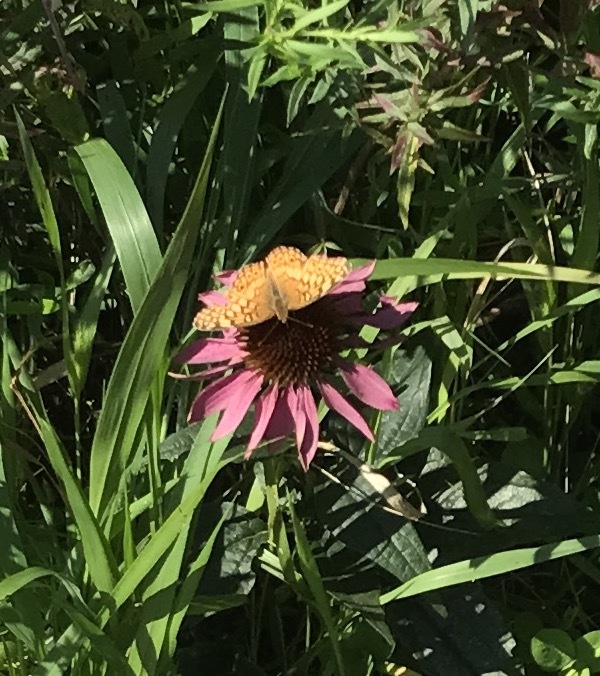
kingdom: Animalia
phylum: Arthropoda
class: Insecta
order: Lepidoptera
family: Nymphalidae
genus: Euptoieta
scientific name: Euptoieta claudia
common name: Variegated fritillary
